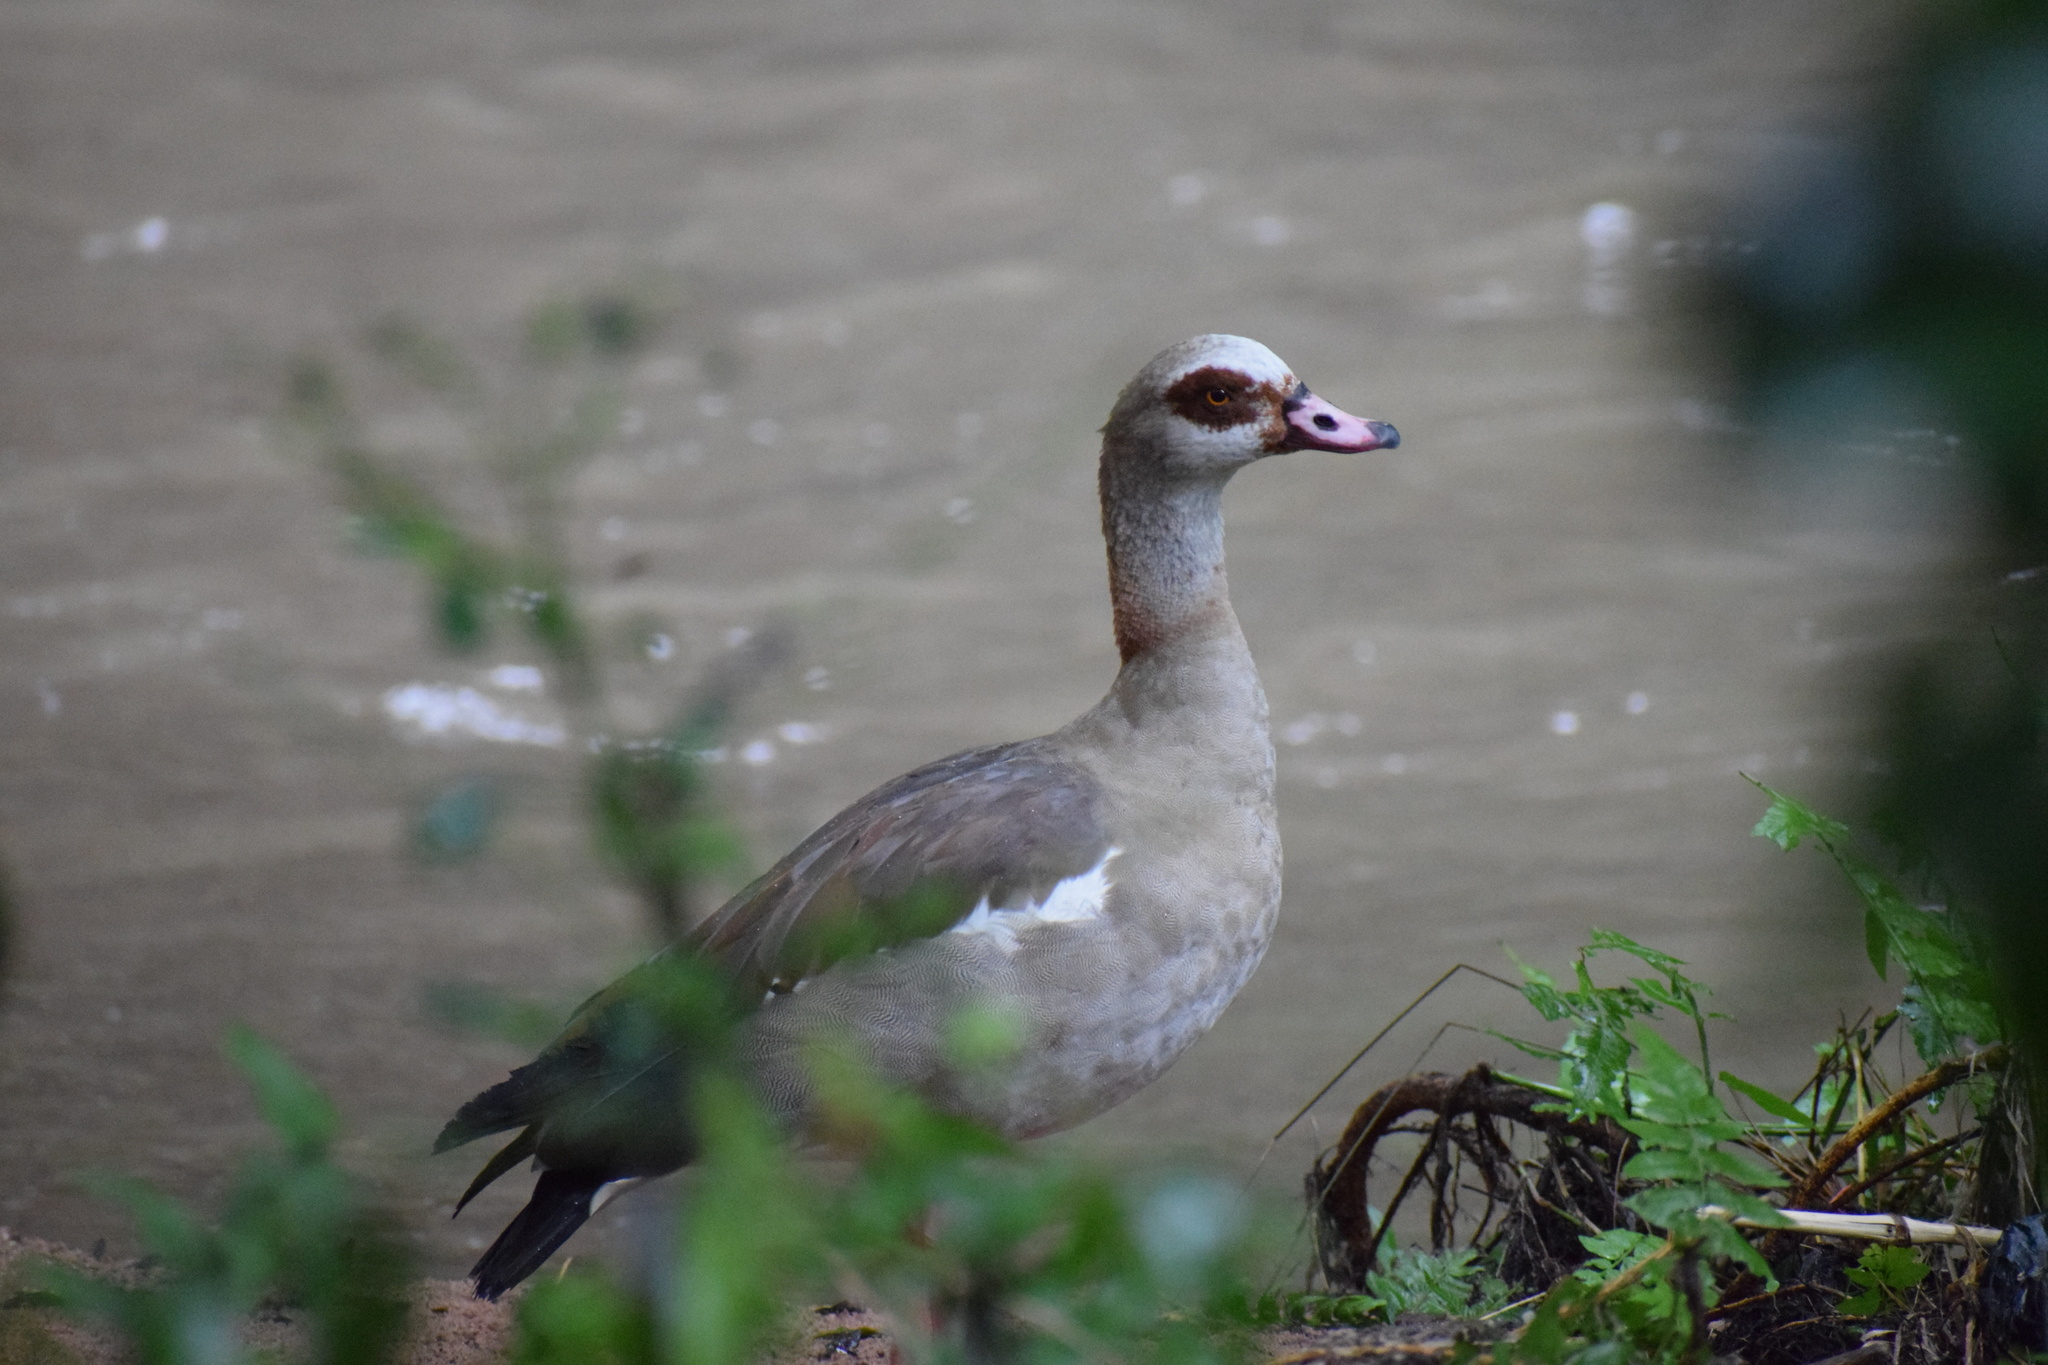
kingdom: Animalia
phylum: Chordata
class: Aves
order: Anseriformes
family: Anatidae
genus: Alopochen
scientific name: Alopochen aegyptiaca
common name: Egyptian goose
